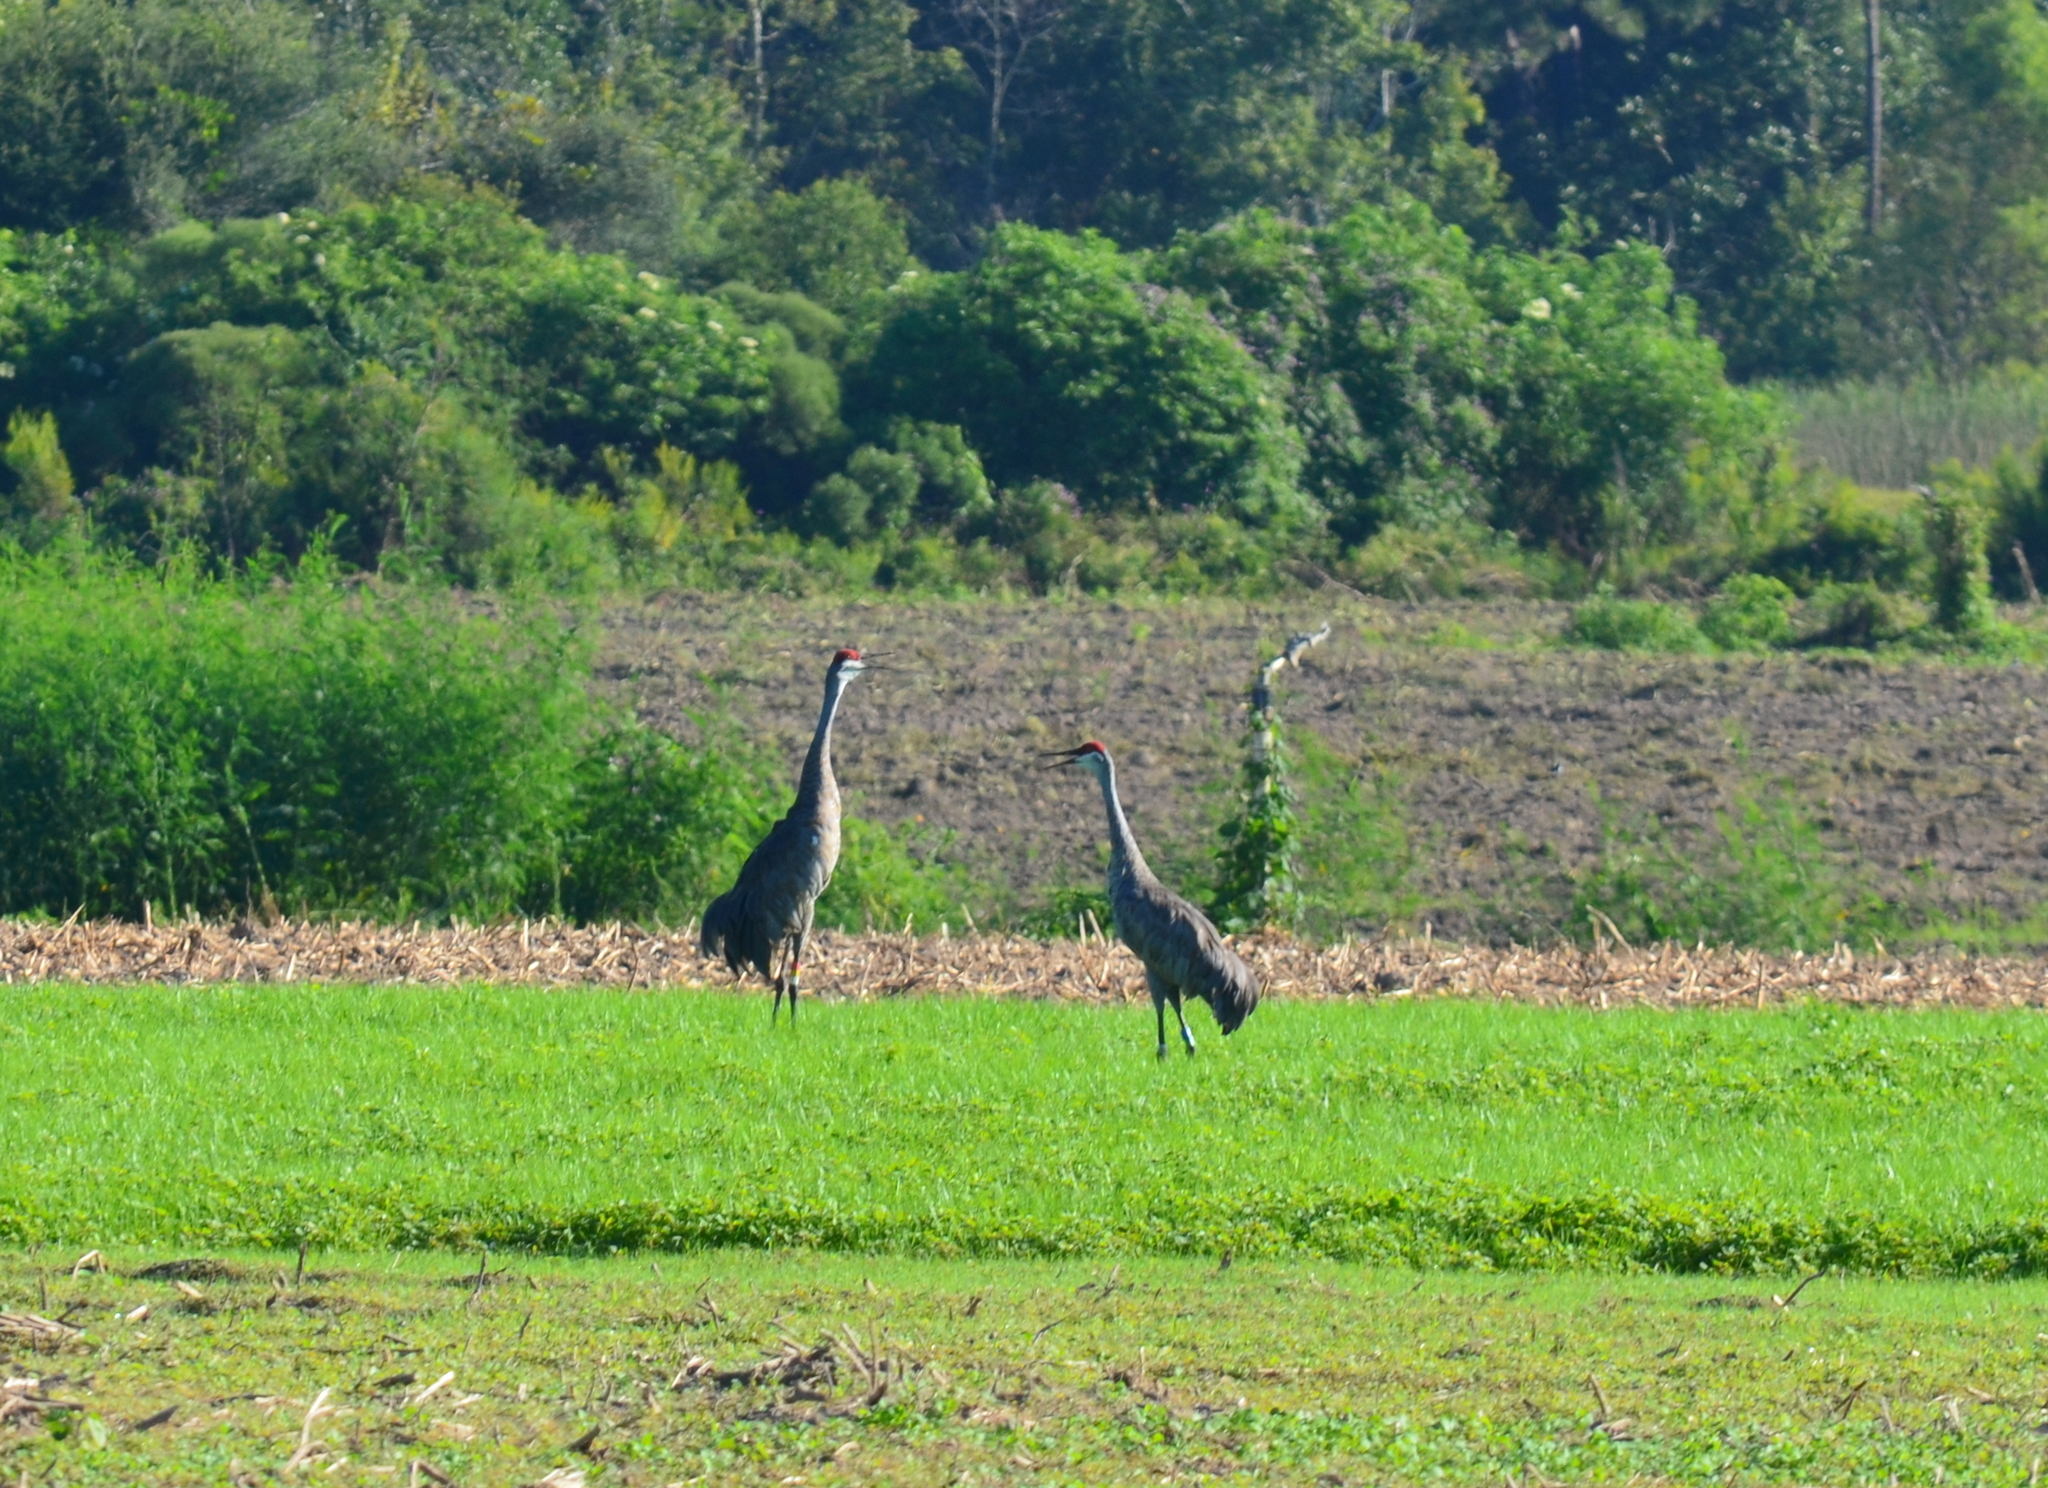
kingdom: Animalia
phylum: Chordata
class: Aves
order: Gruiformes
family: Gruidae
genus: Grus
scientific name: Grus canadensis
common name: Sandhill crane
